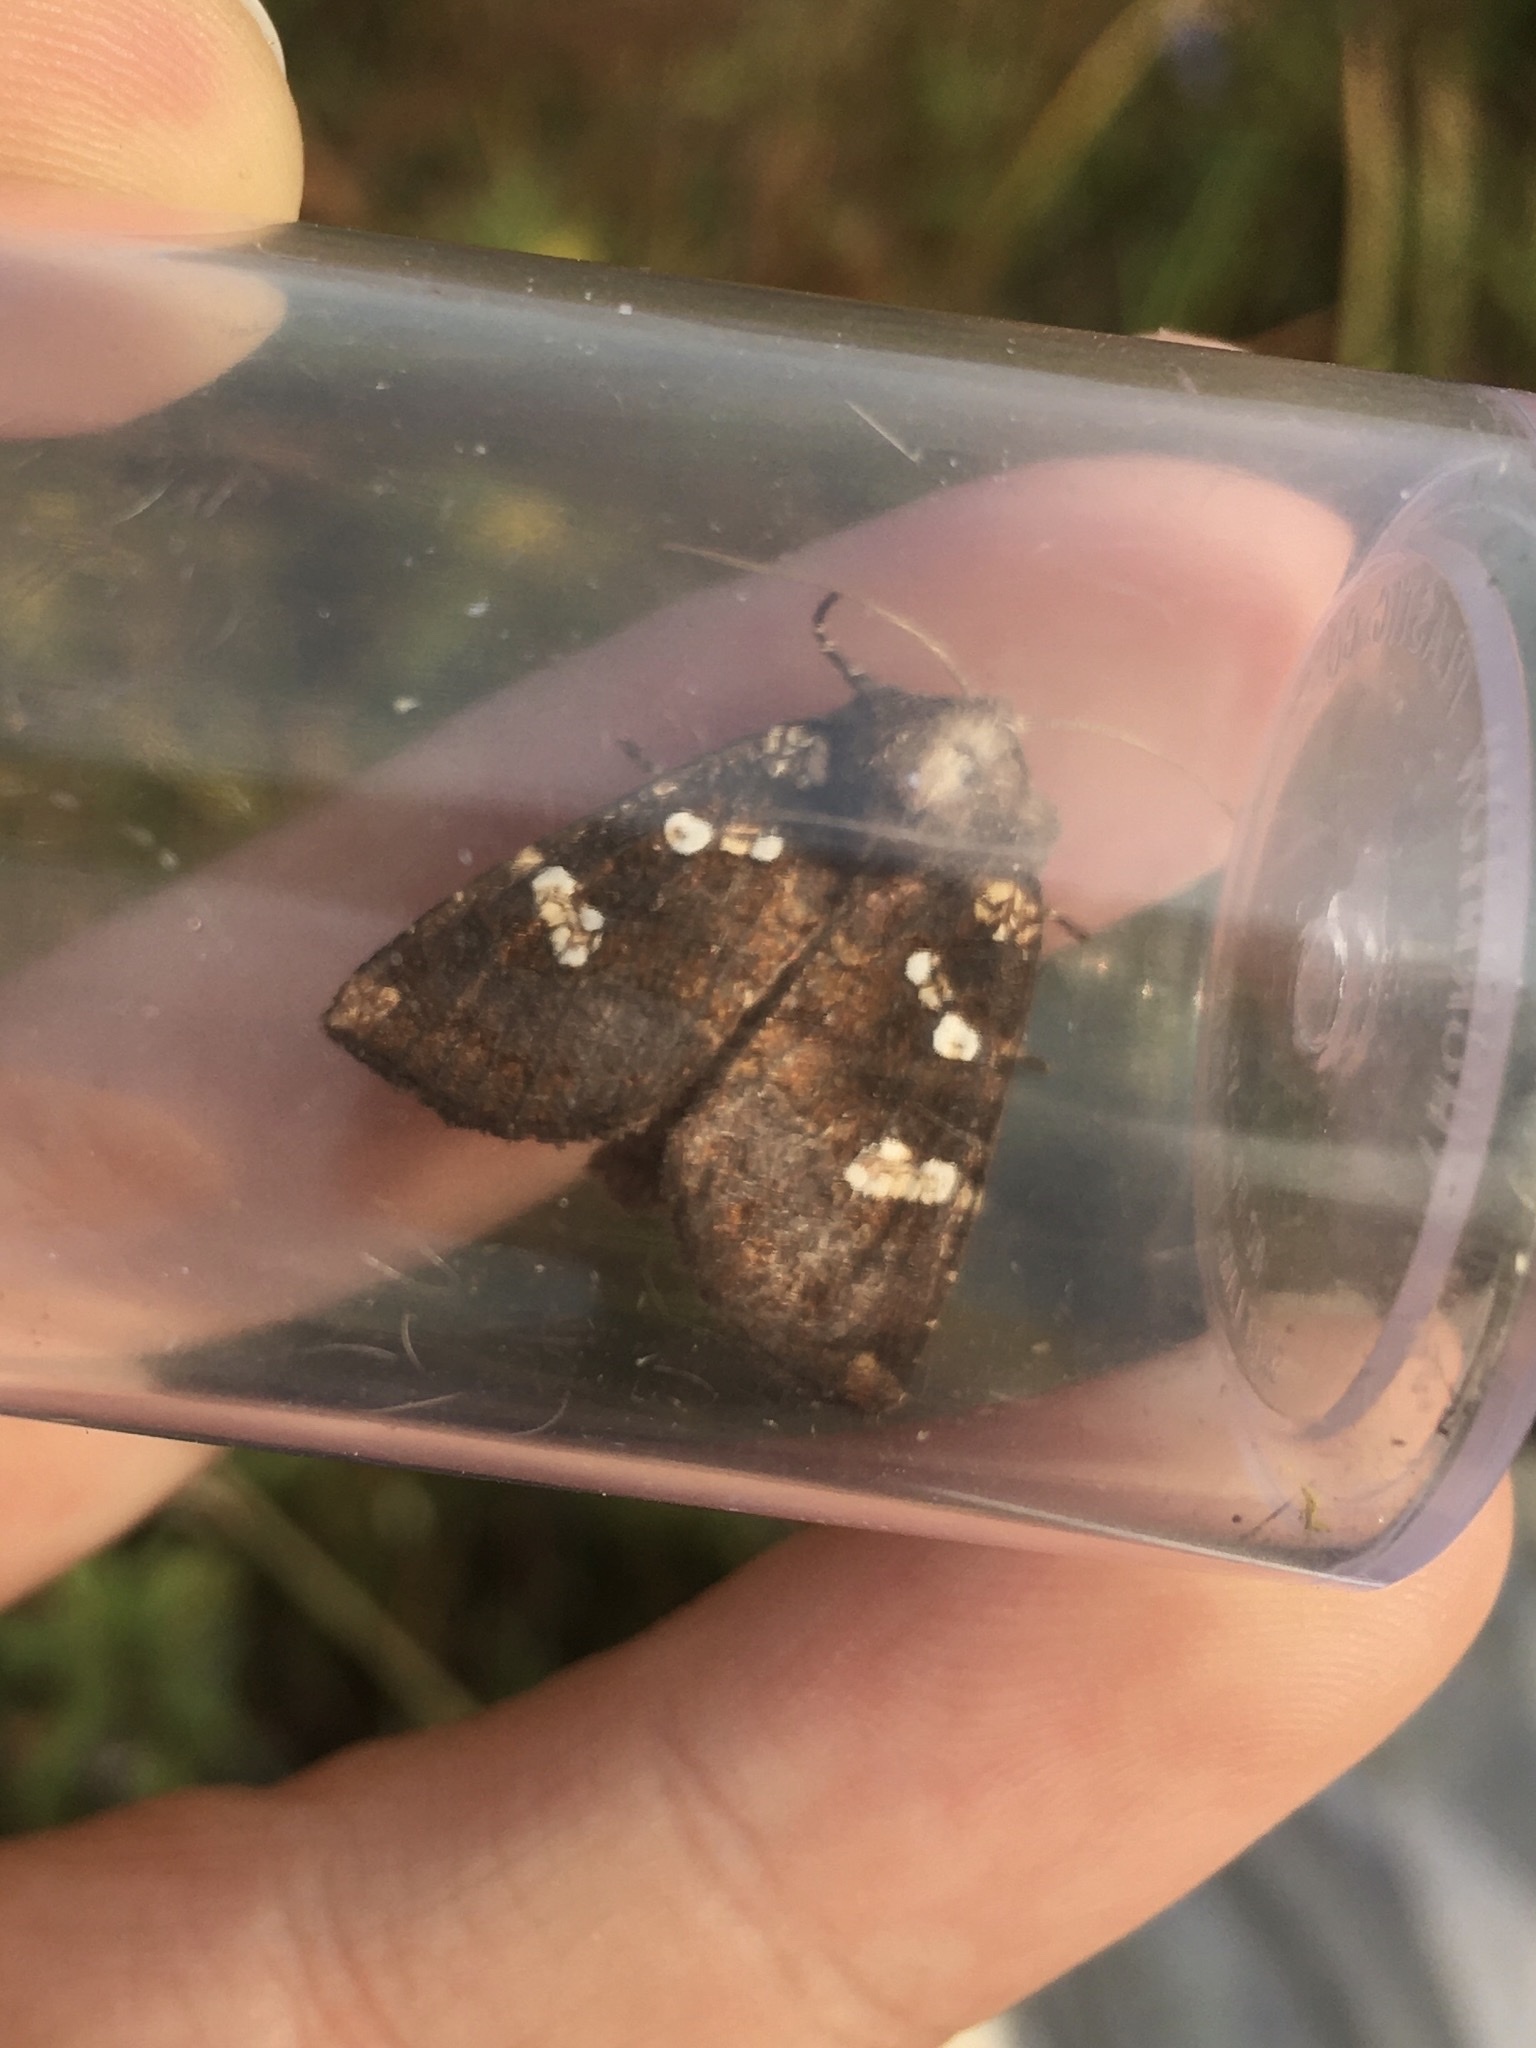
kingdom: Animalia
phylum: Arthropoda
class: Insecta
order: Lepidoptera
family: Noctuidae
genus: Papaipema
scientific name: Papaipema unimoda
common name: Meadow rue borer moth
